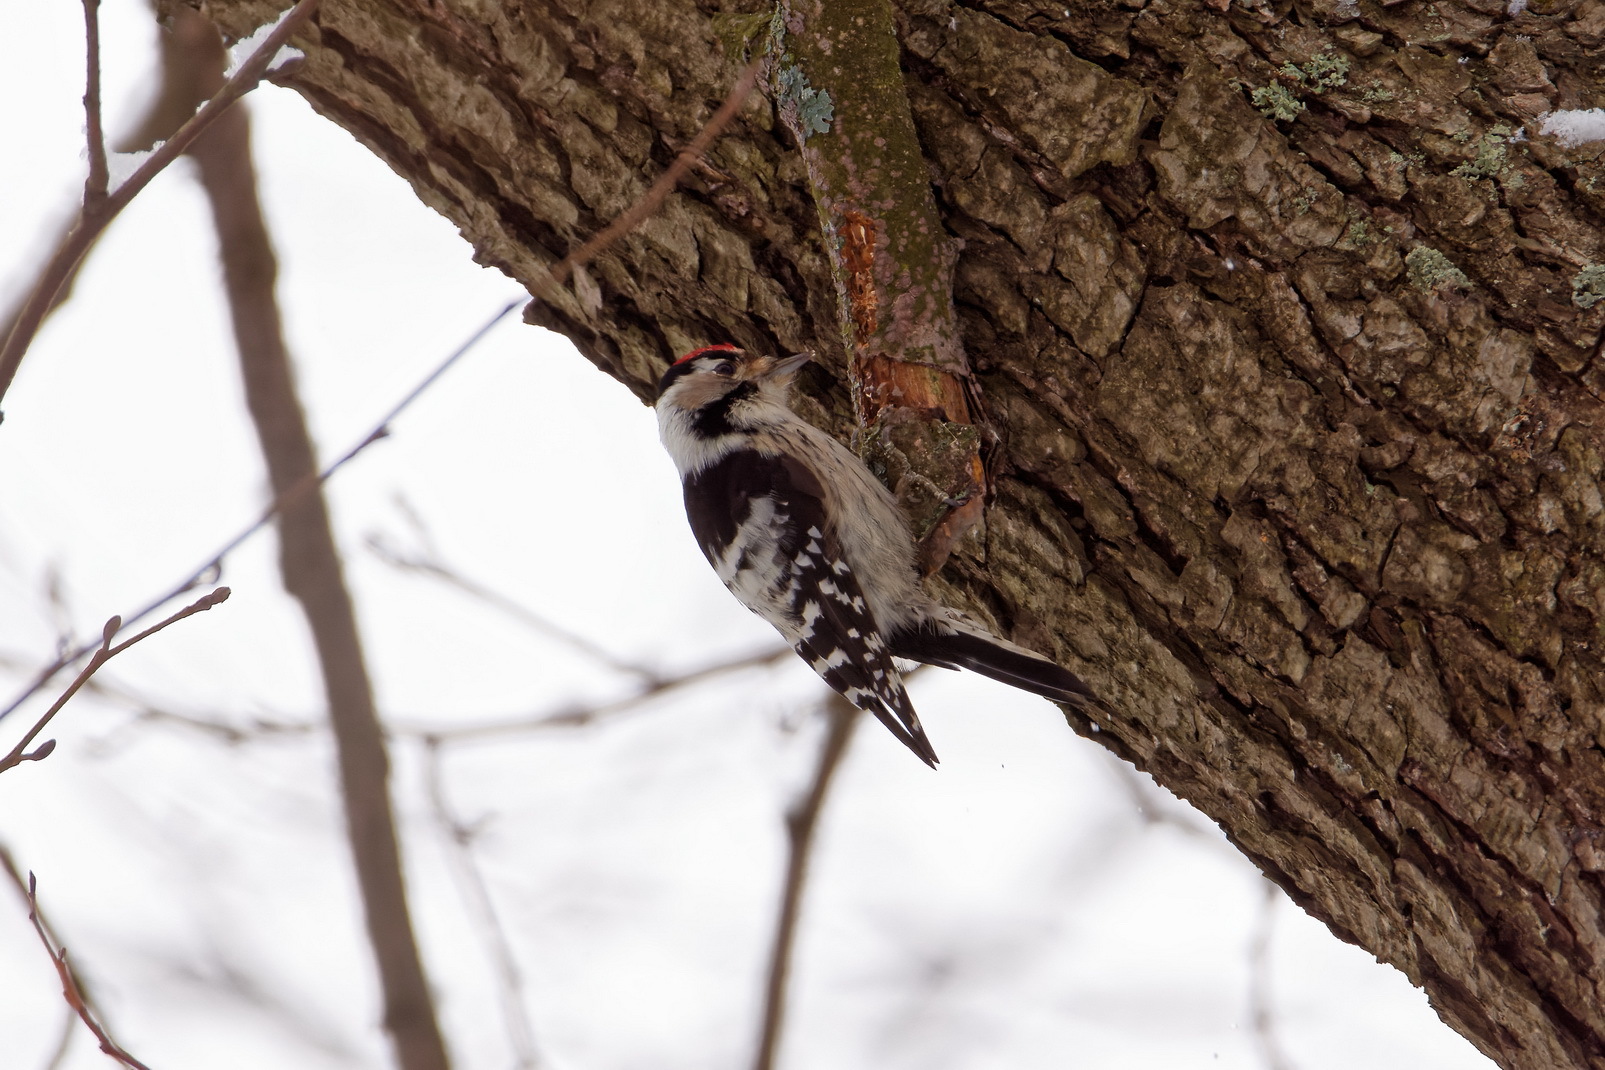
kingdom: Animalia
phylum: Chordata
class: Aves
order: Piciformes
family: Picidae
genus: Dryobates
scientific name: Dryobates minor
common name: Lesser spotted woodpecker
